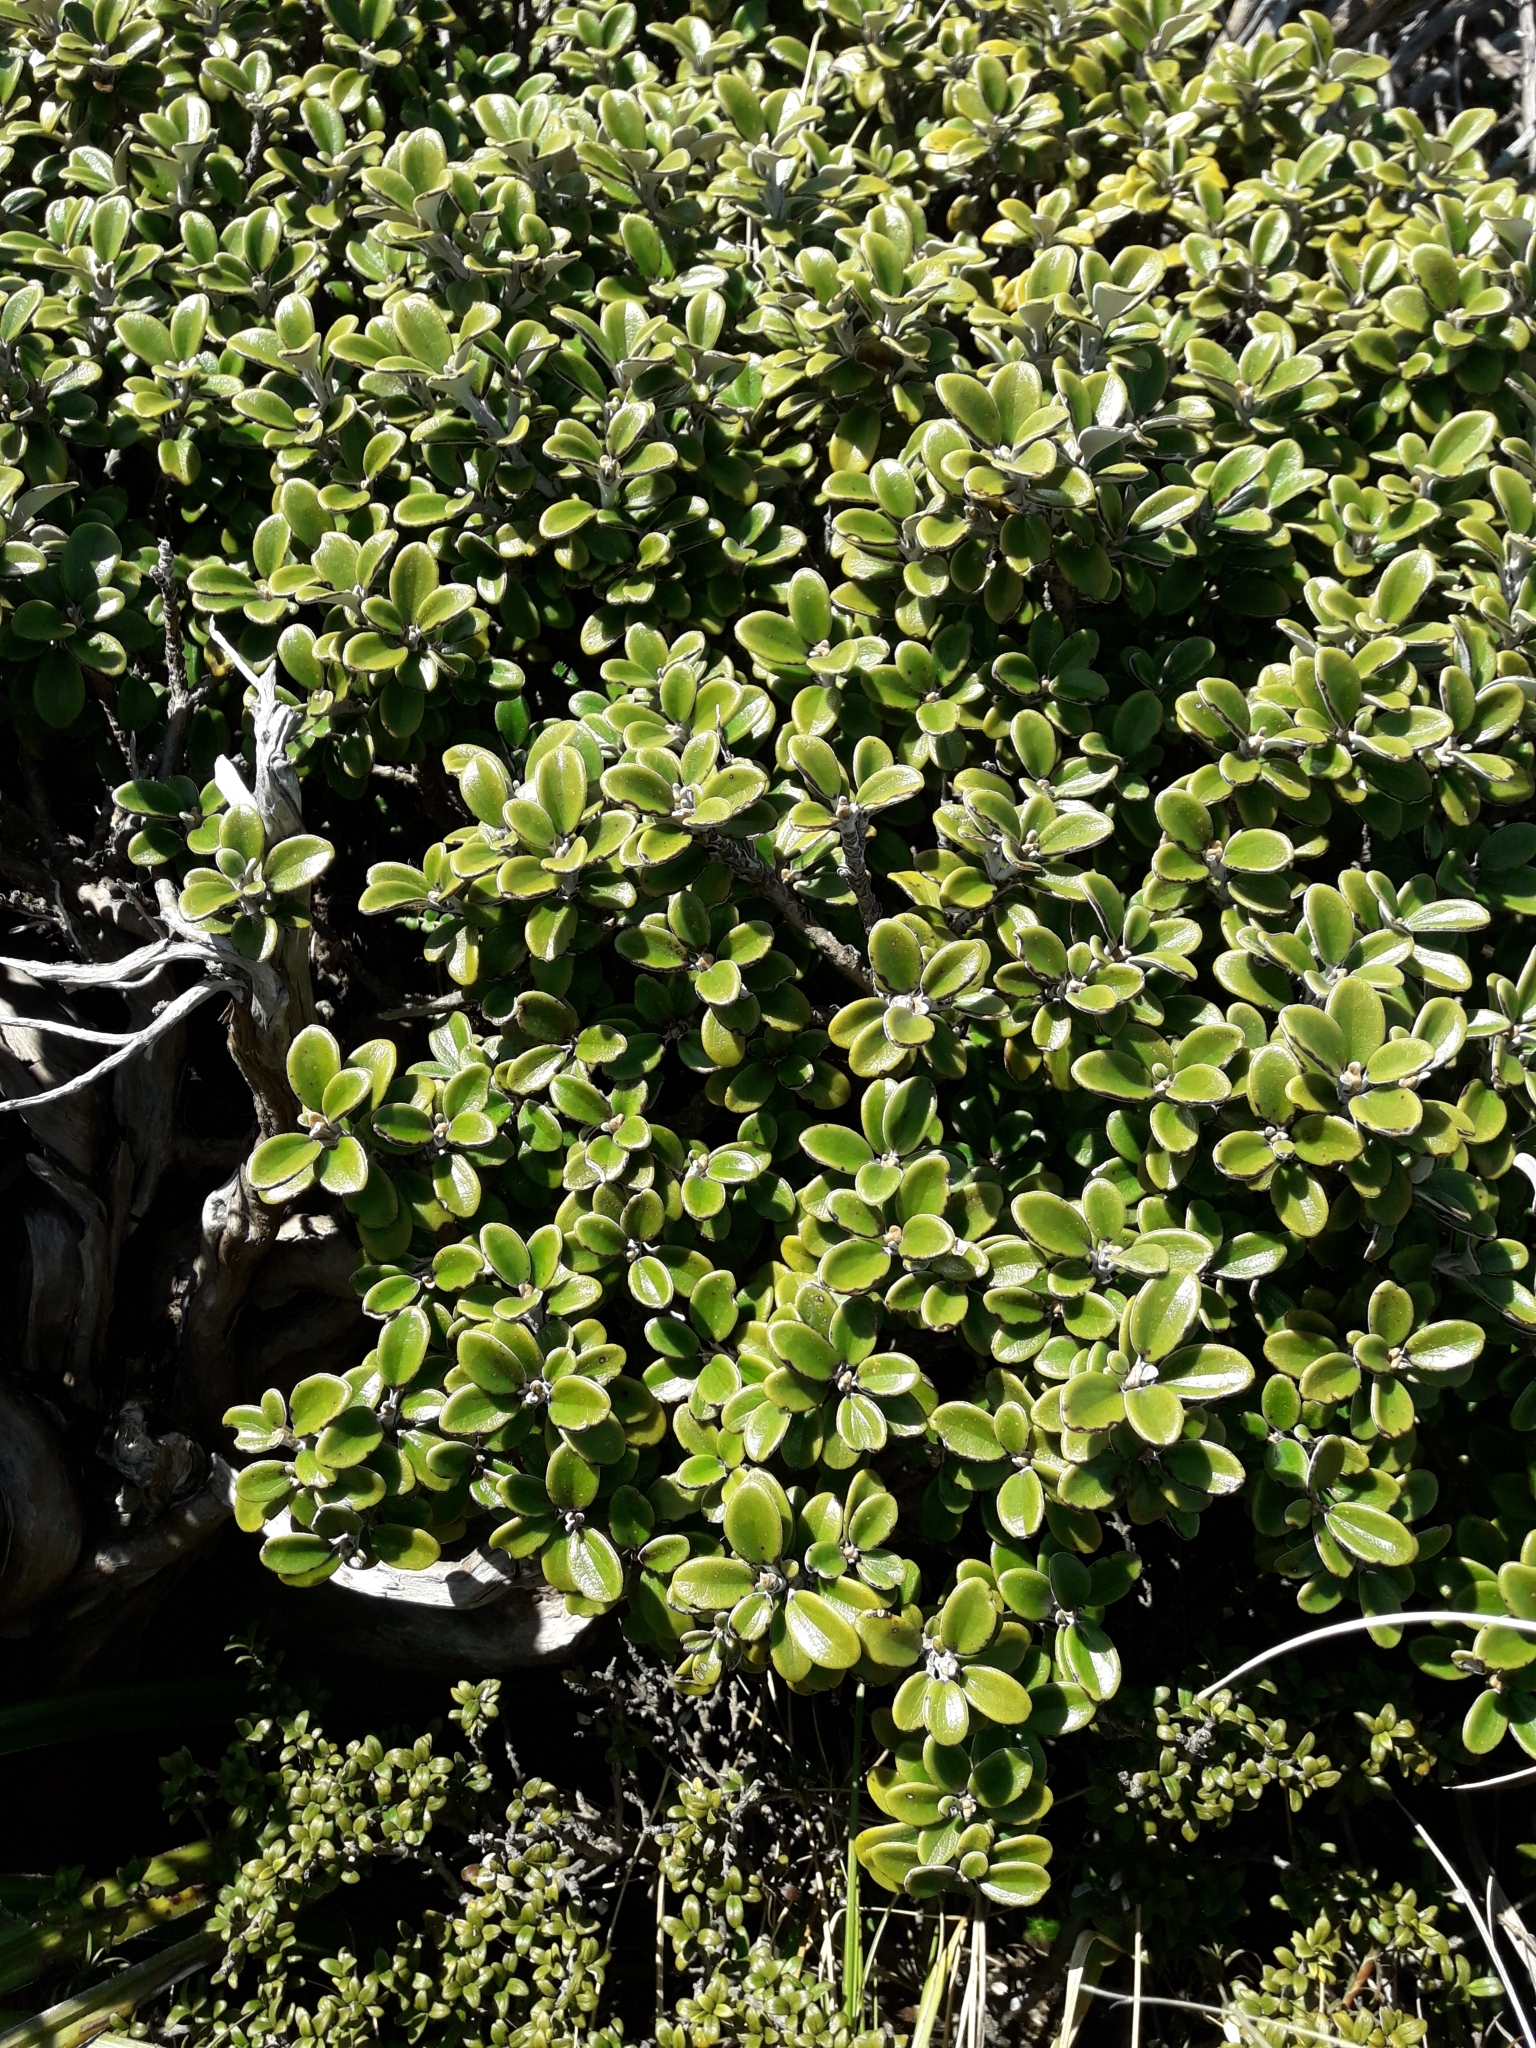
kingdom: Plantae
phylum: Tracheophyta
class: Magnoliopsida
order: Asterales
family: Asteraceae
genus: Brachyglottis
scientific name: Brachyglottis bidwillii
